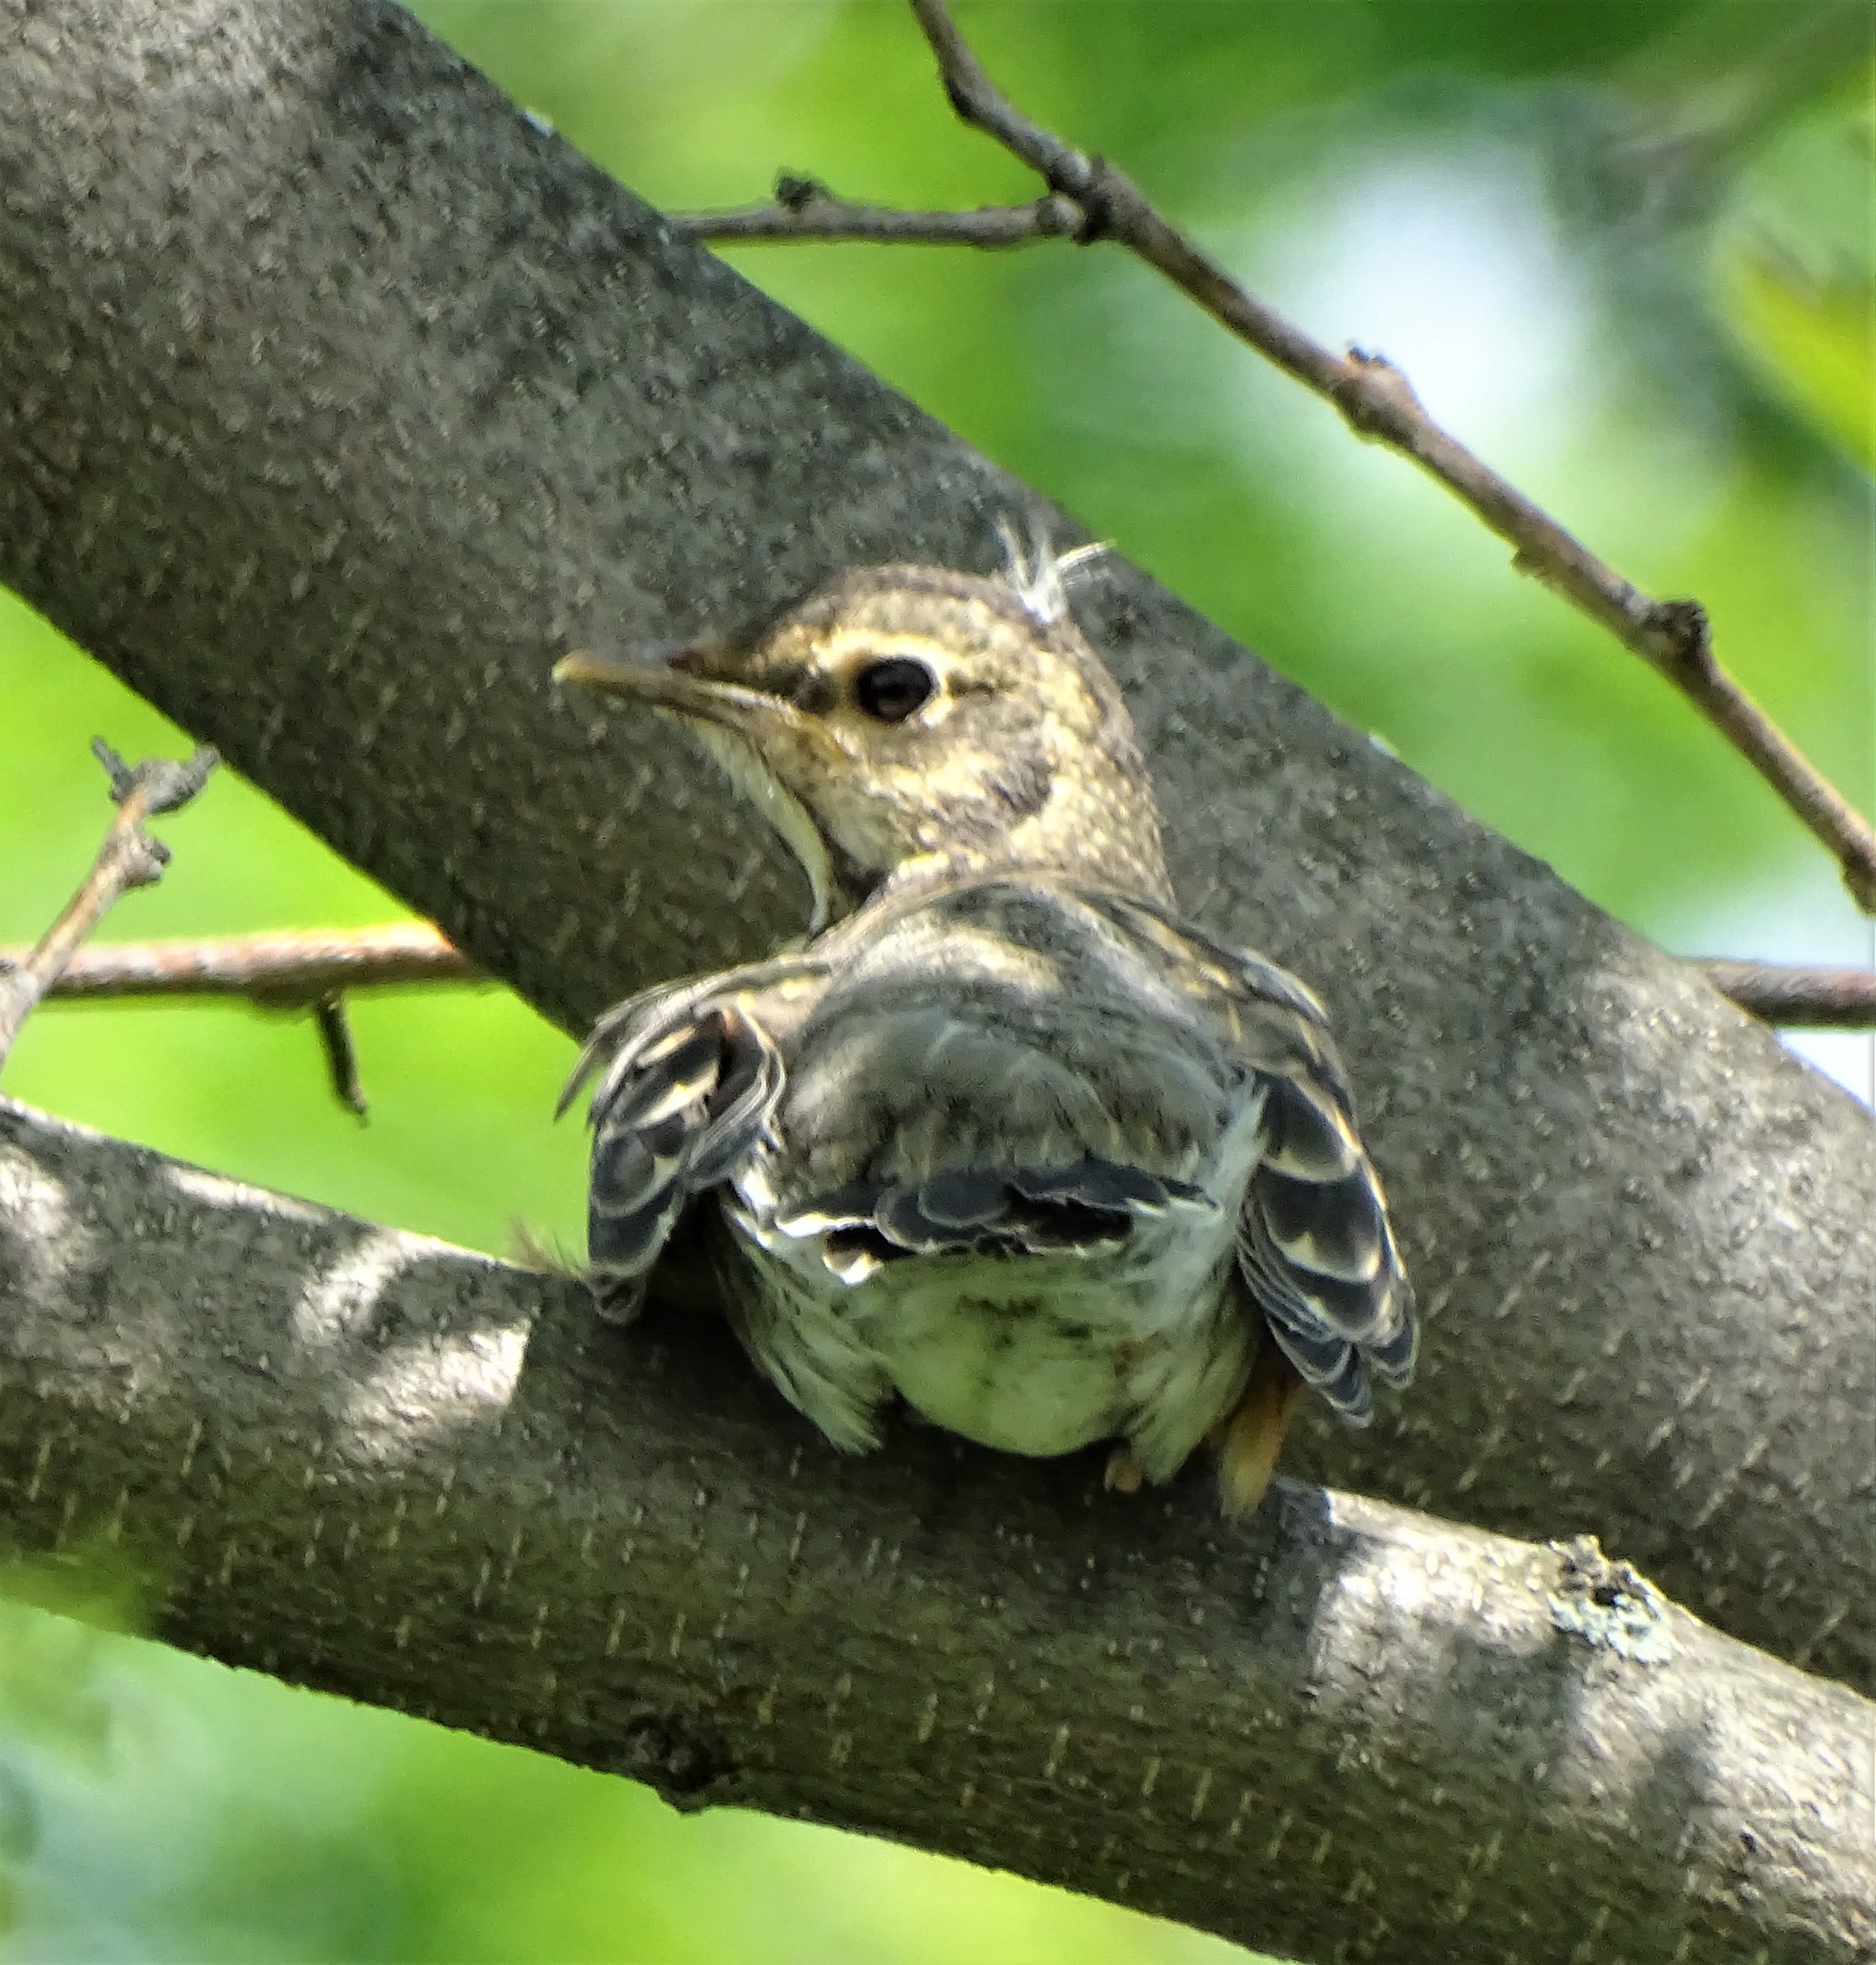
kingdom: Animalia
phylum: Chordata
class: Aves
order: Passeriformes
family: Turdidae
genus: Turdus
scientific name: Turdus migratorius
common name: American robin
